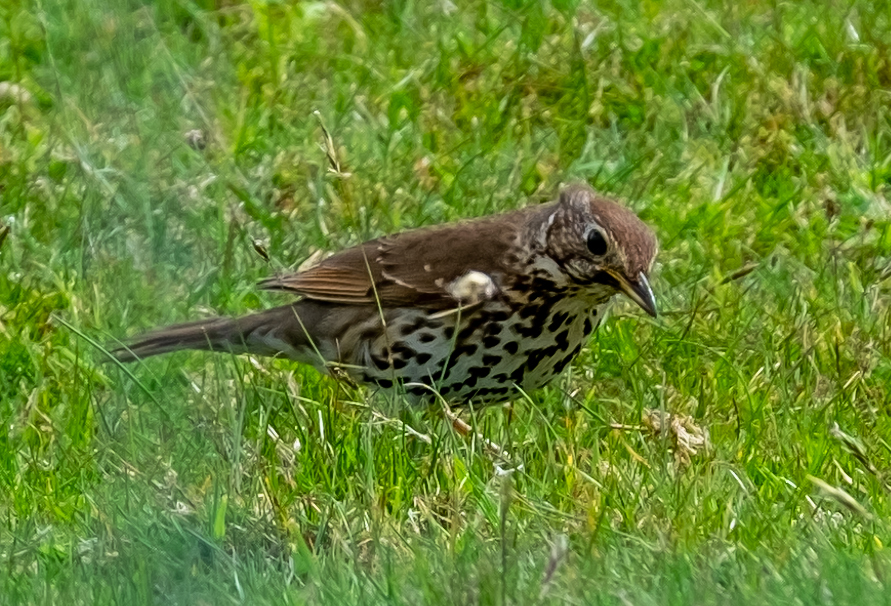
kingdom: Animalia
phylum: Chordata
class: Aves
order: Passeriformes
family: Turdidae
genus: Turdus
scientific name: Turdus philomelos
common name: Song thrush
